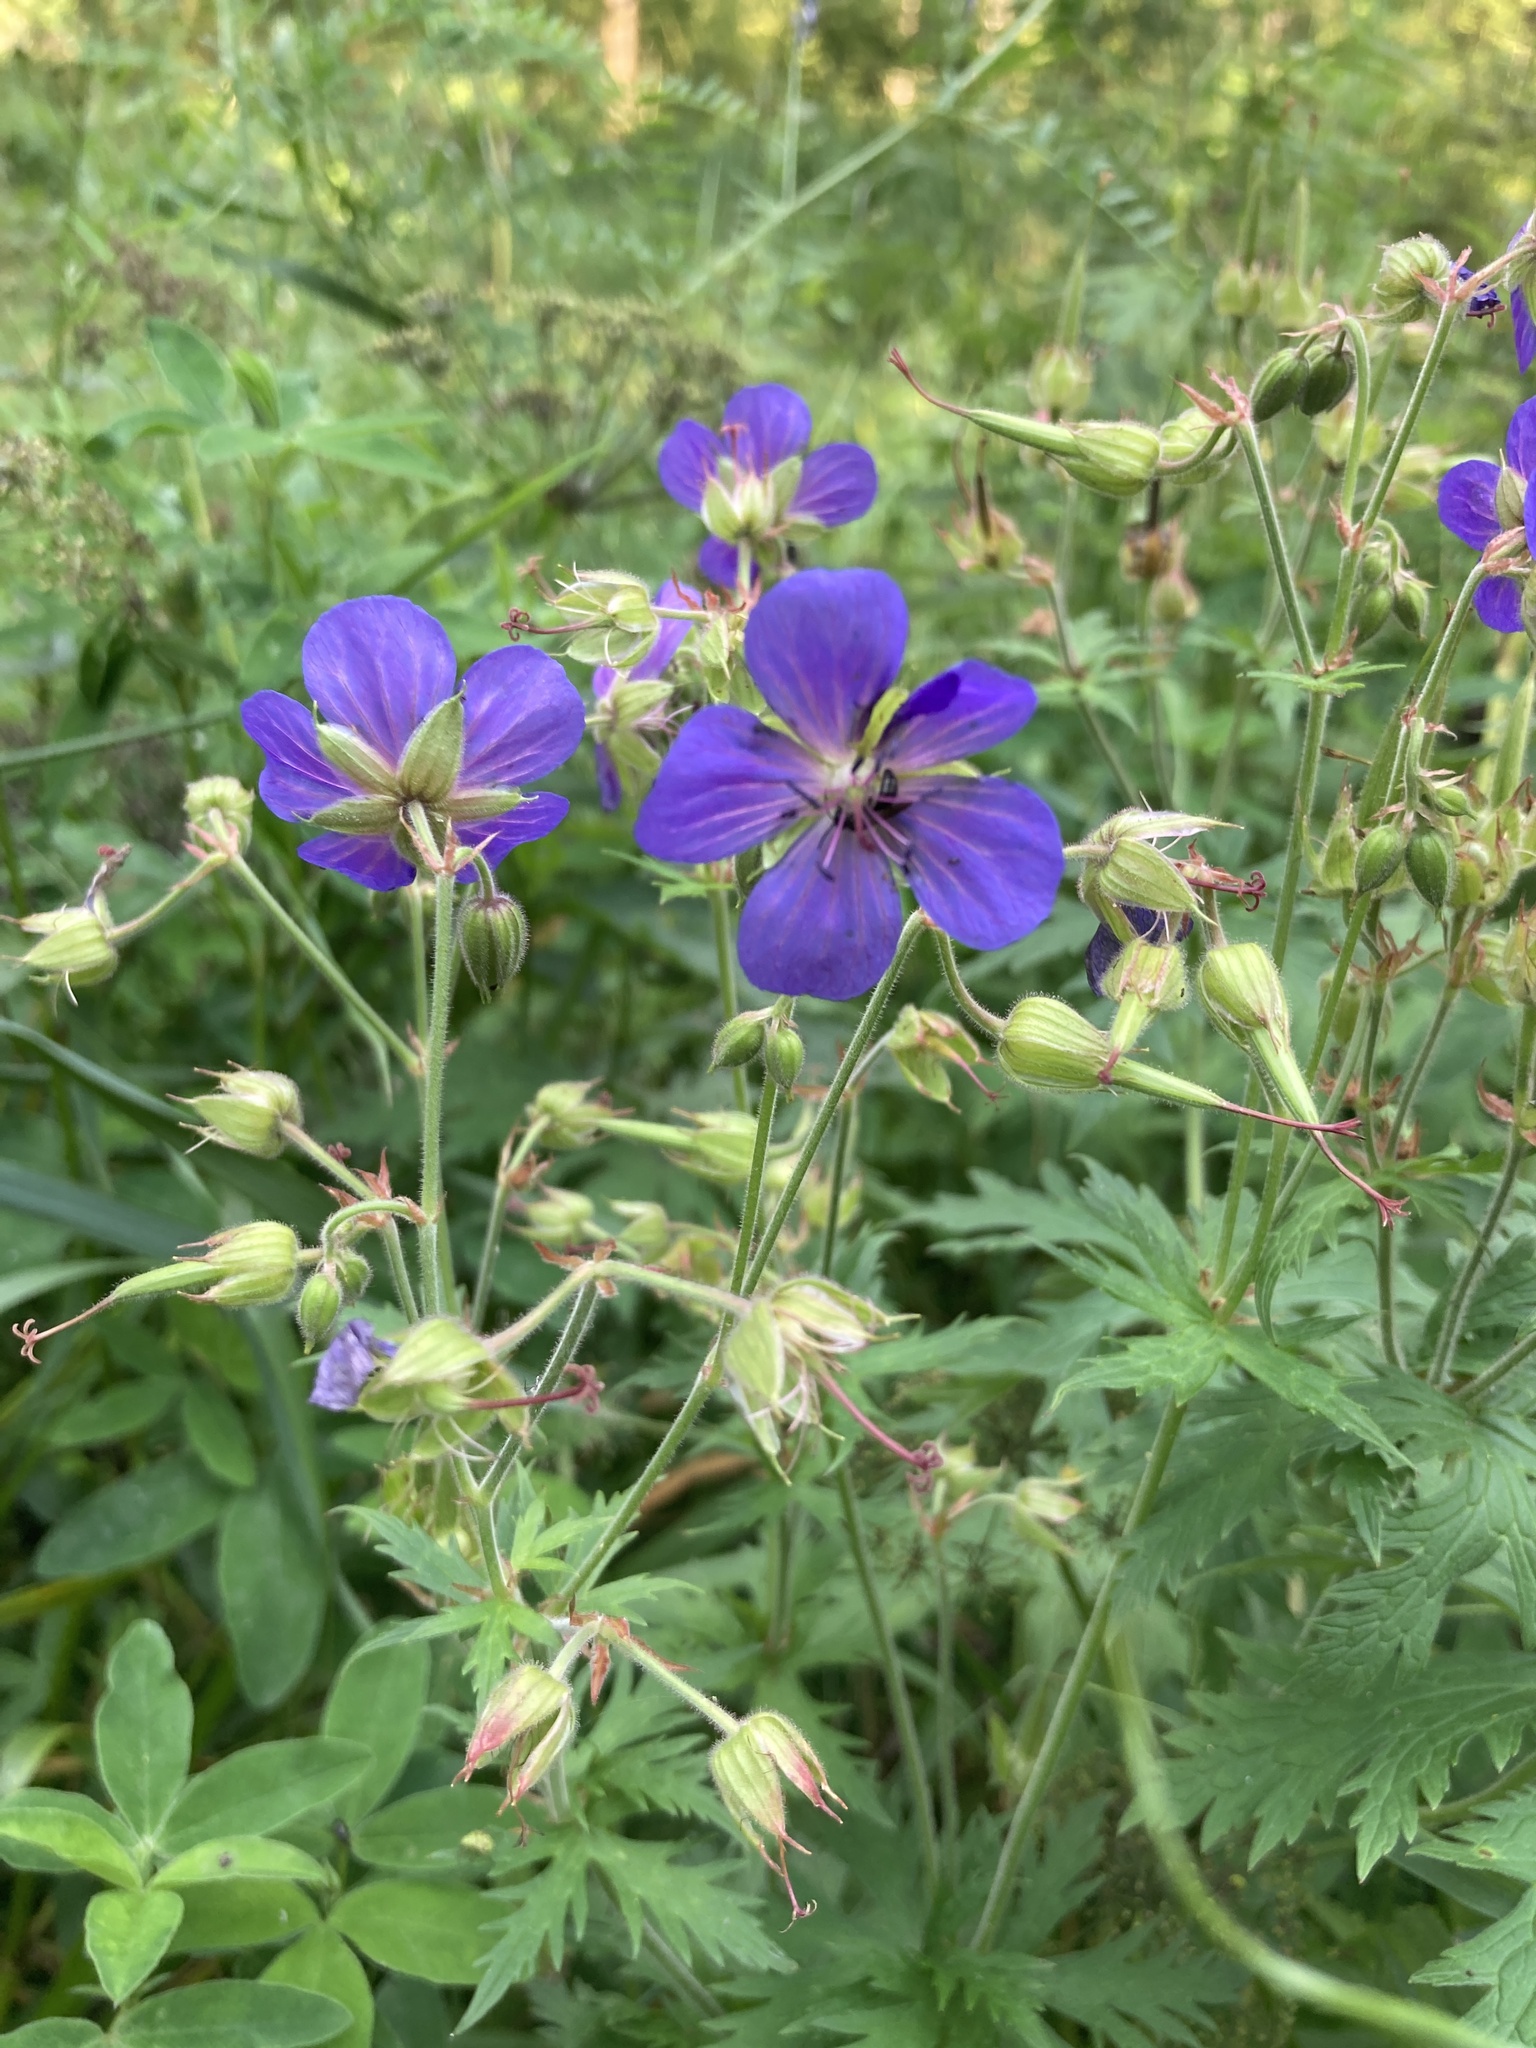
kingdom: Plantae
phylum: Tracheophyta
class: Magnoliopsida
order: Geraniales
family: Geraniaceae
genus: Geranium
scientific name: Geranium pratense
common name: Meadow crane's-bill
